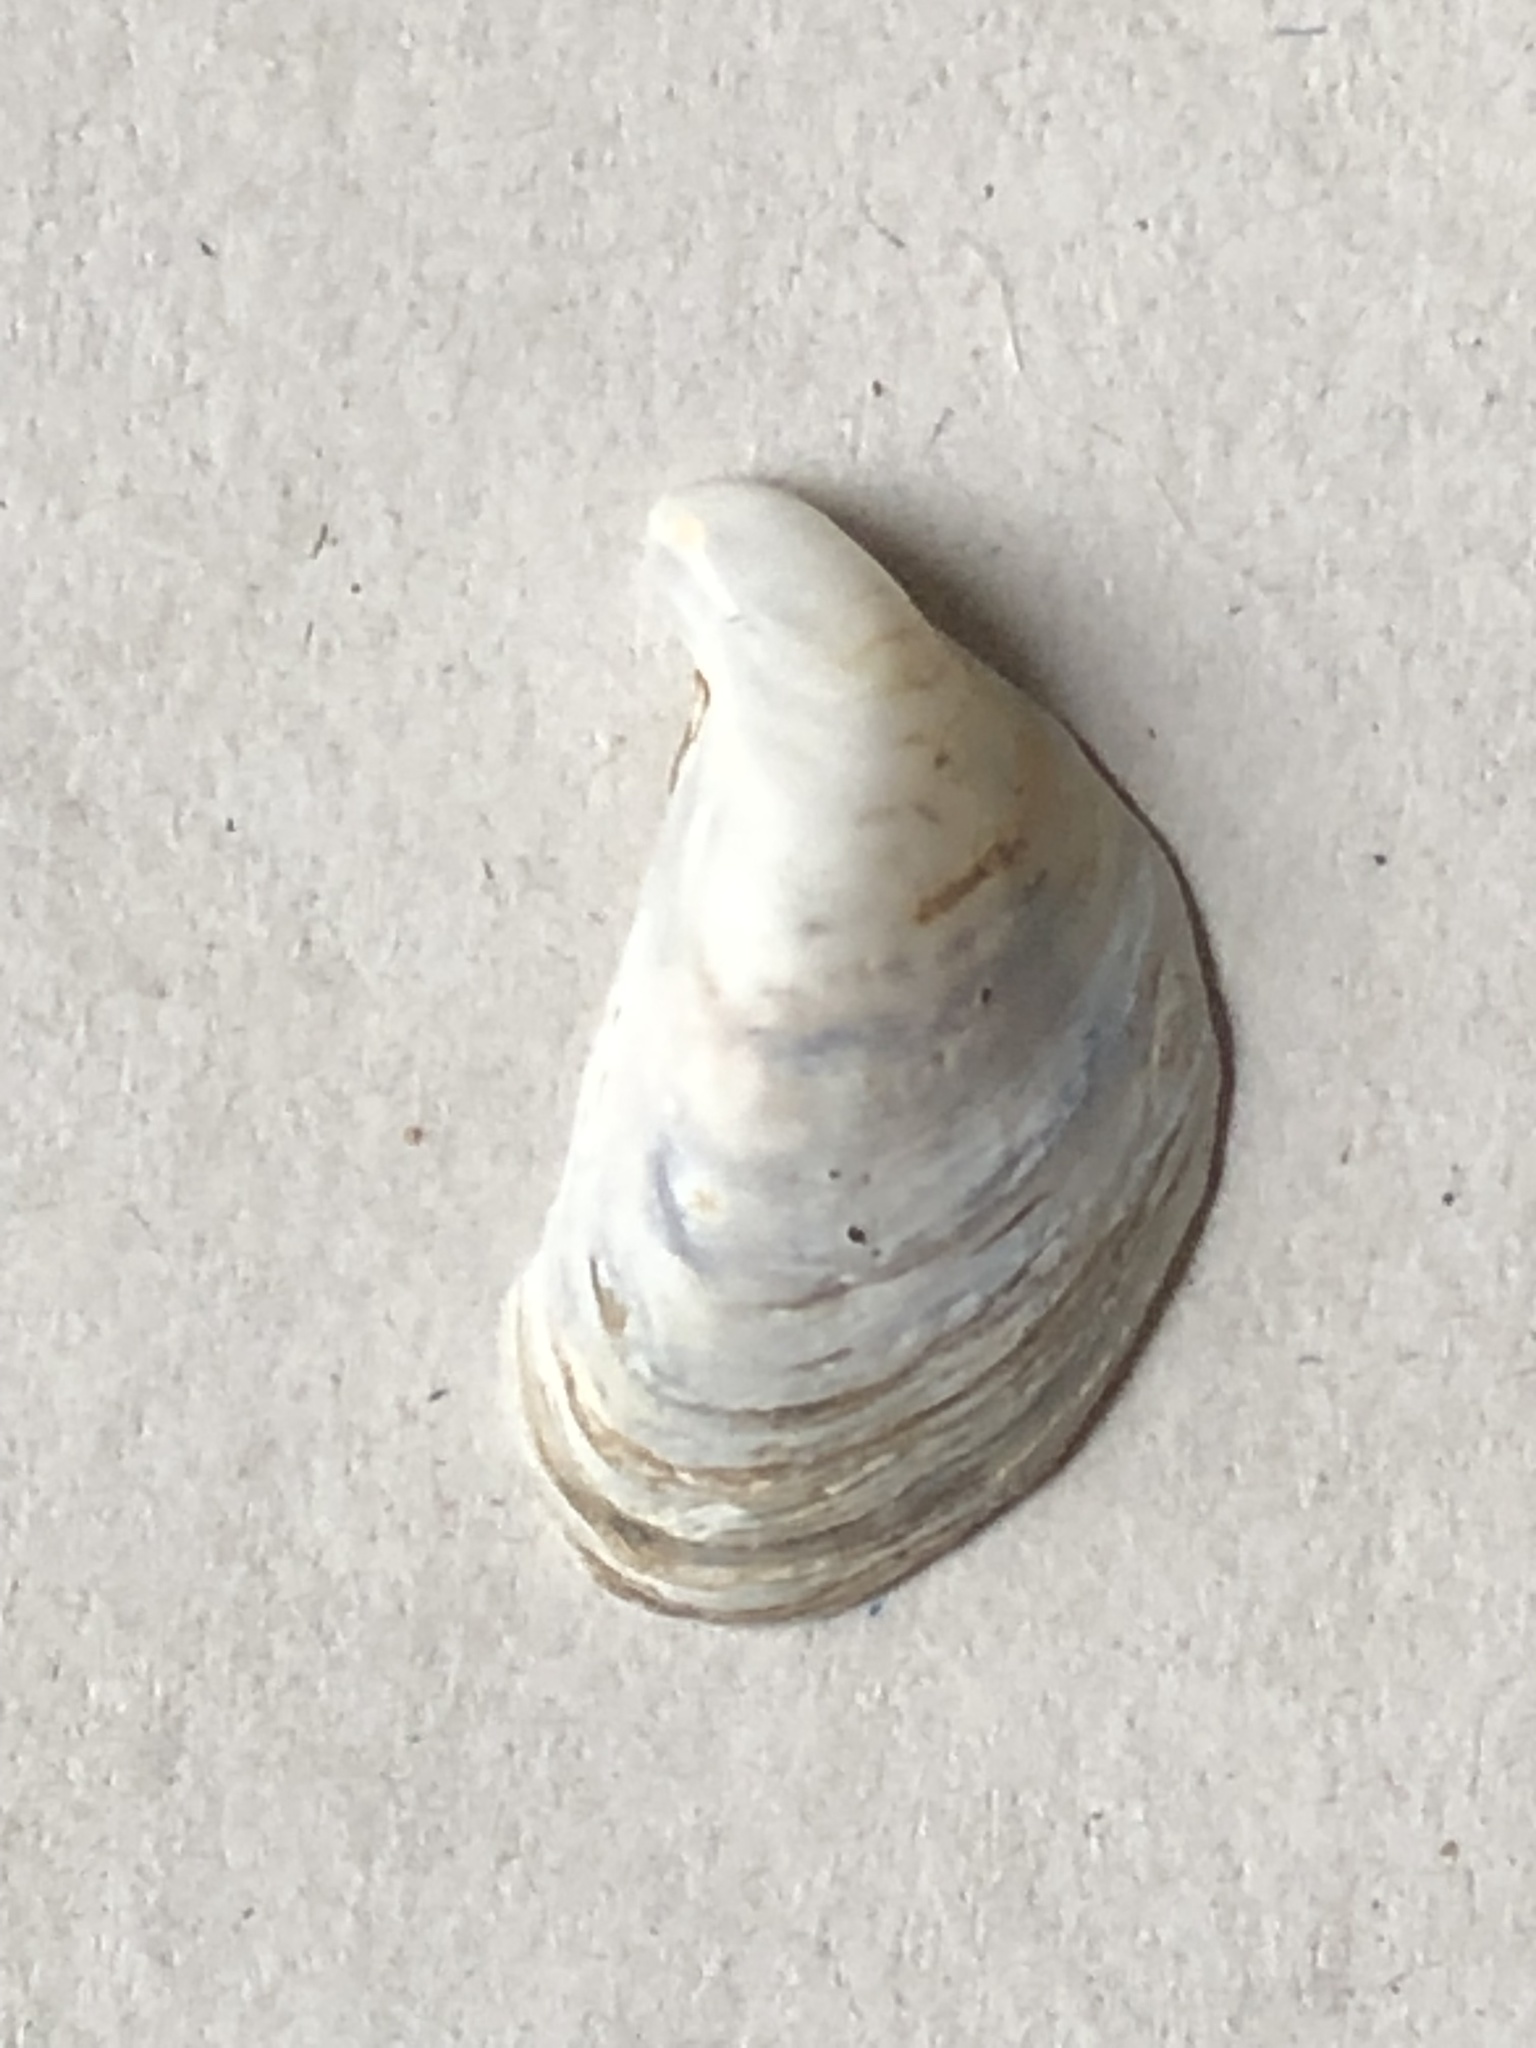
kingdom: Animalia
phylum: Mollusca
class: Bivalvia
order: Myida
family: Dreissenidae
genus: Dreissena
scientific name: Dreissena bugensis
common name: Quagga mussel
